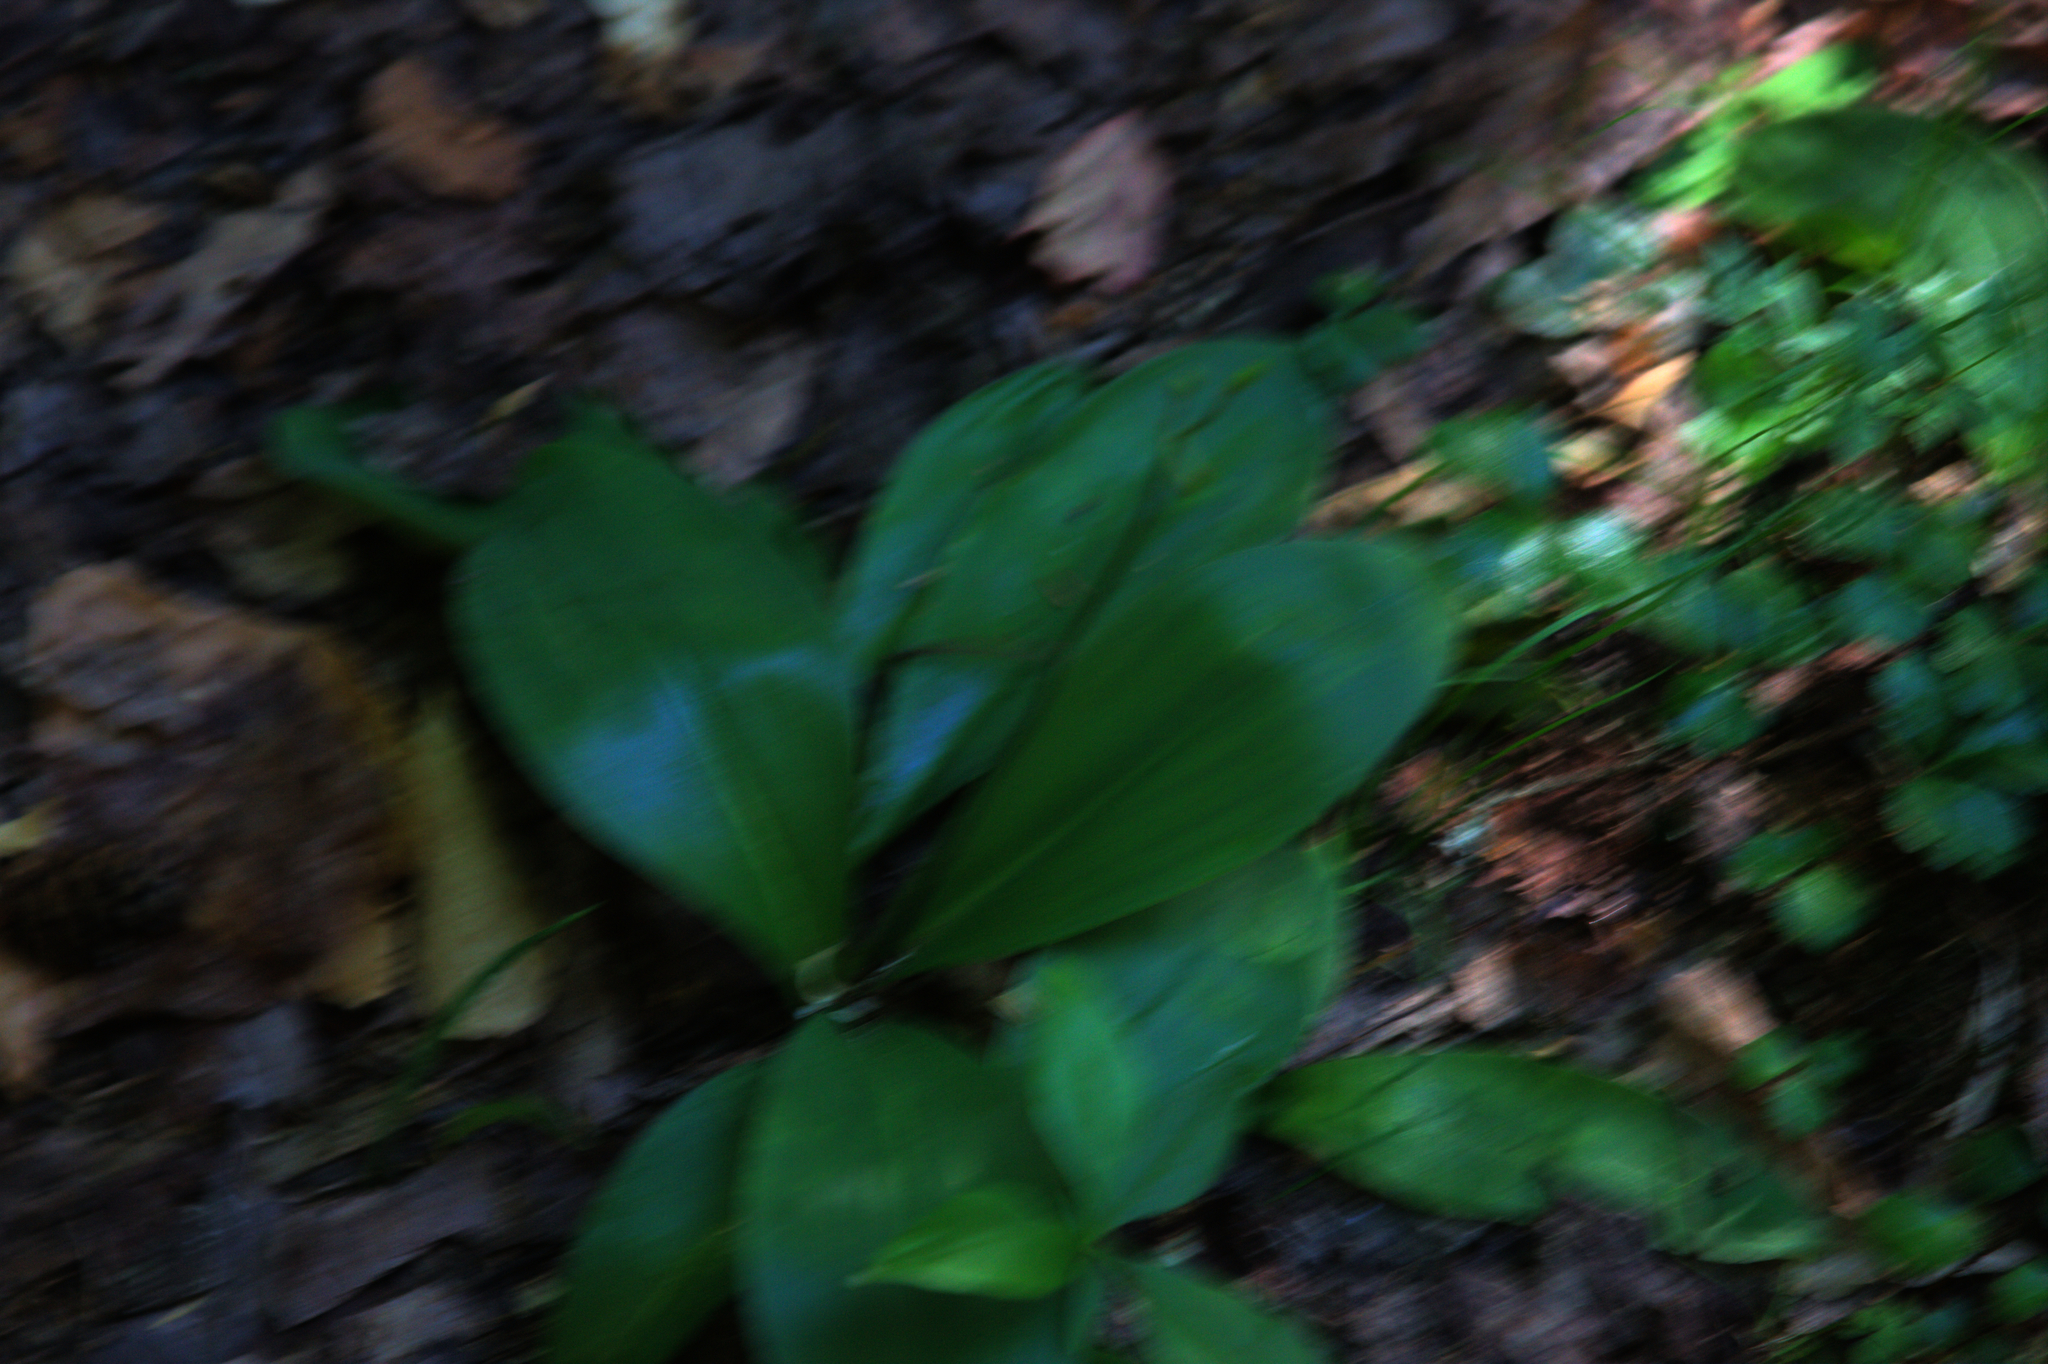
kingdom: Plantae
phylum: Tracheophyta
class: Liliopsida
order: Liliales
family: Liliaceae
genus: Clintonia
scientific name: Clintonia borealis
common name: Yellow clintonia
